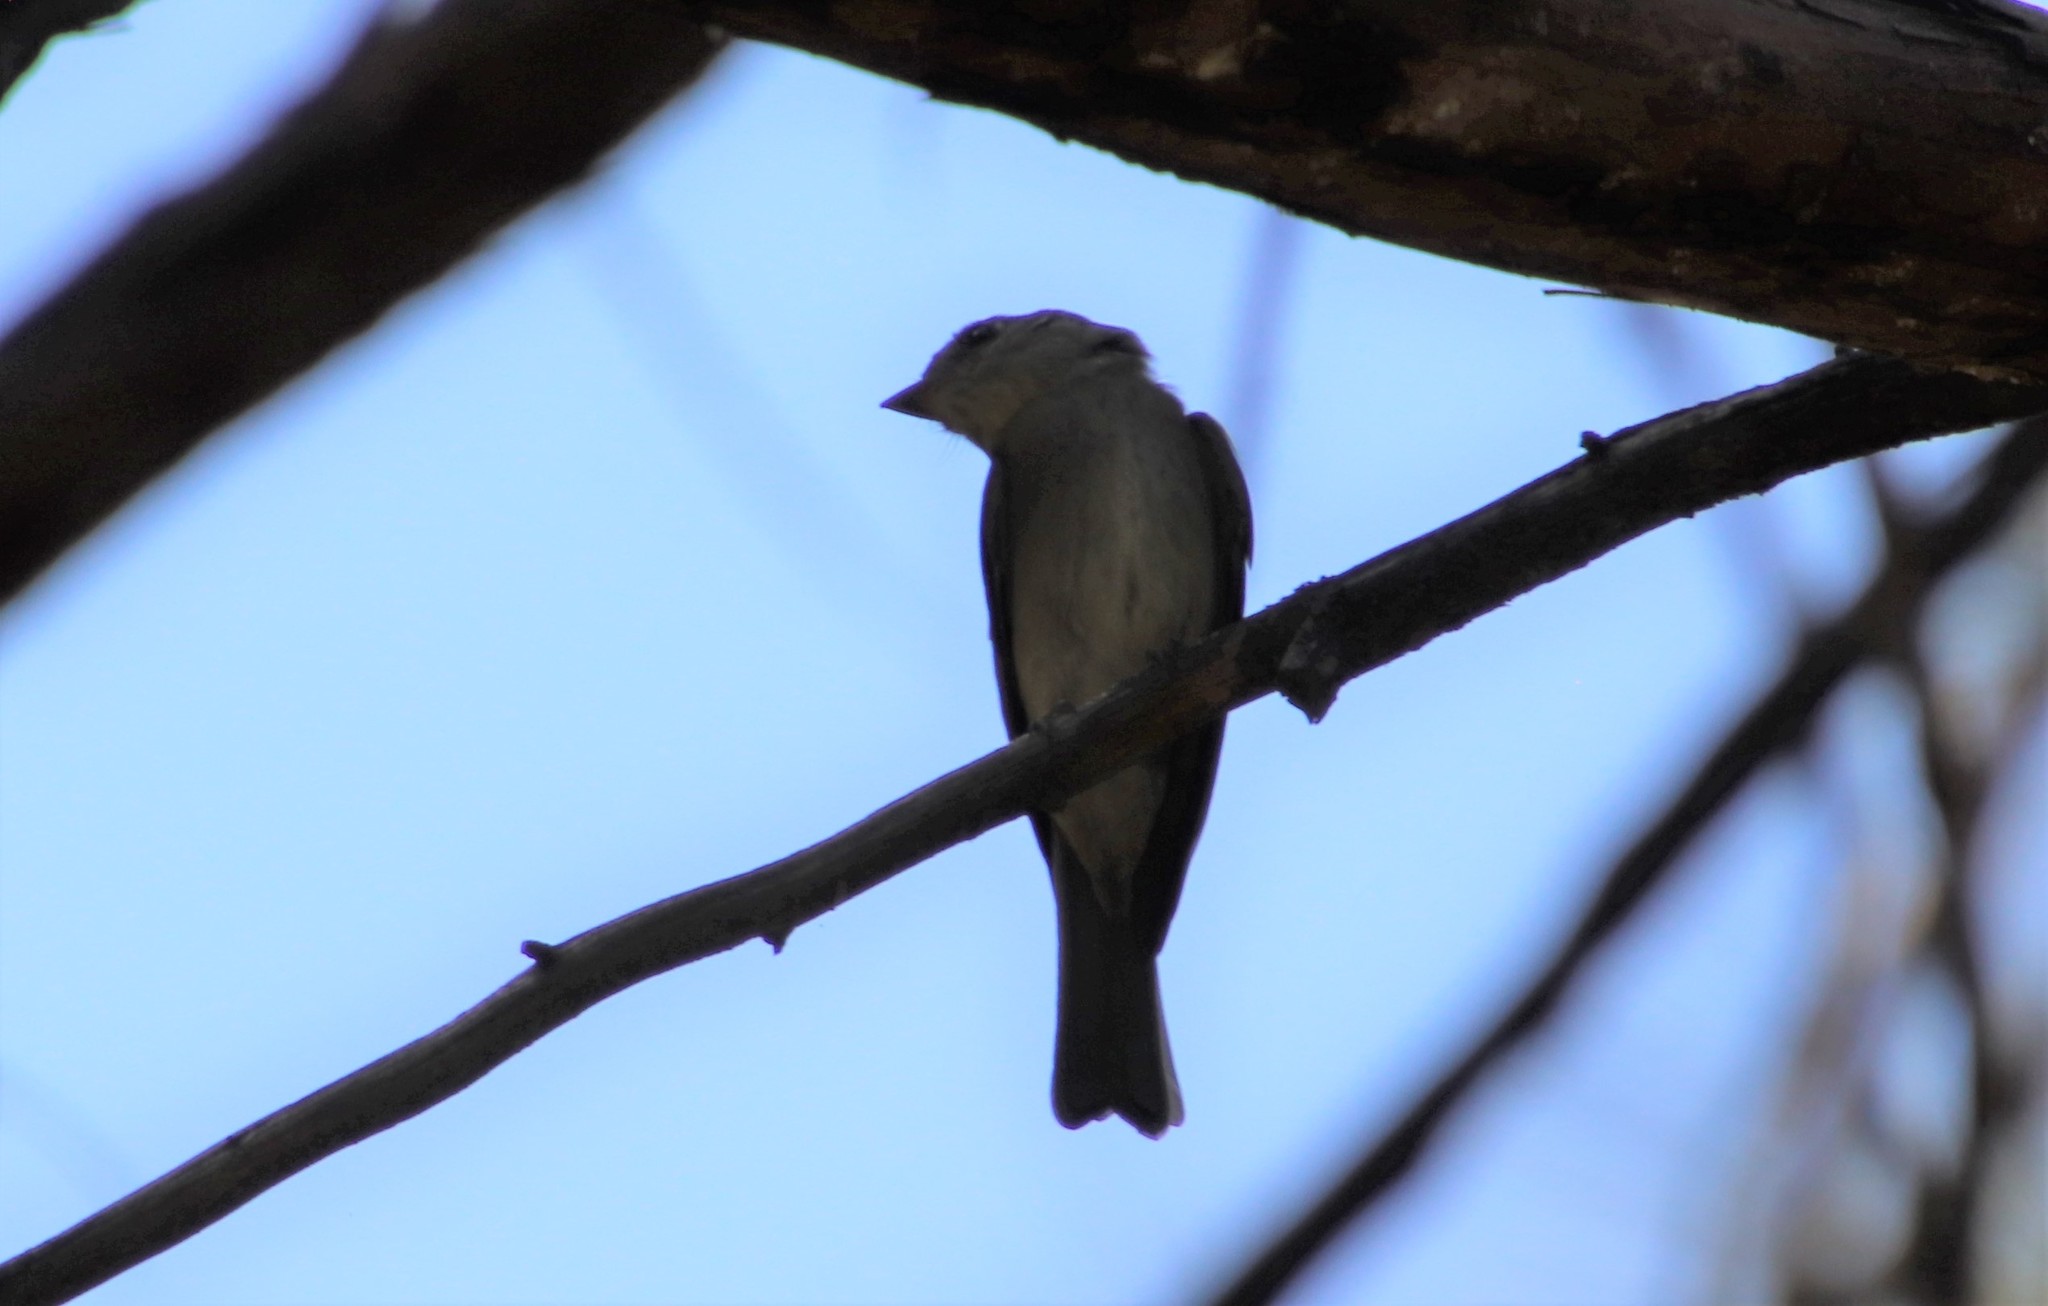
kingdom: Animalia
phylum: Chordata
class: Aves
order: Passeriformes
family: Tyrannidae
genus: Contopus
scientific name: Contopus sordidulus
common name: Western wood-pewee
